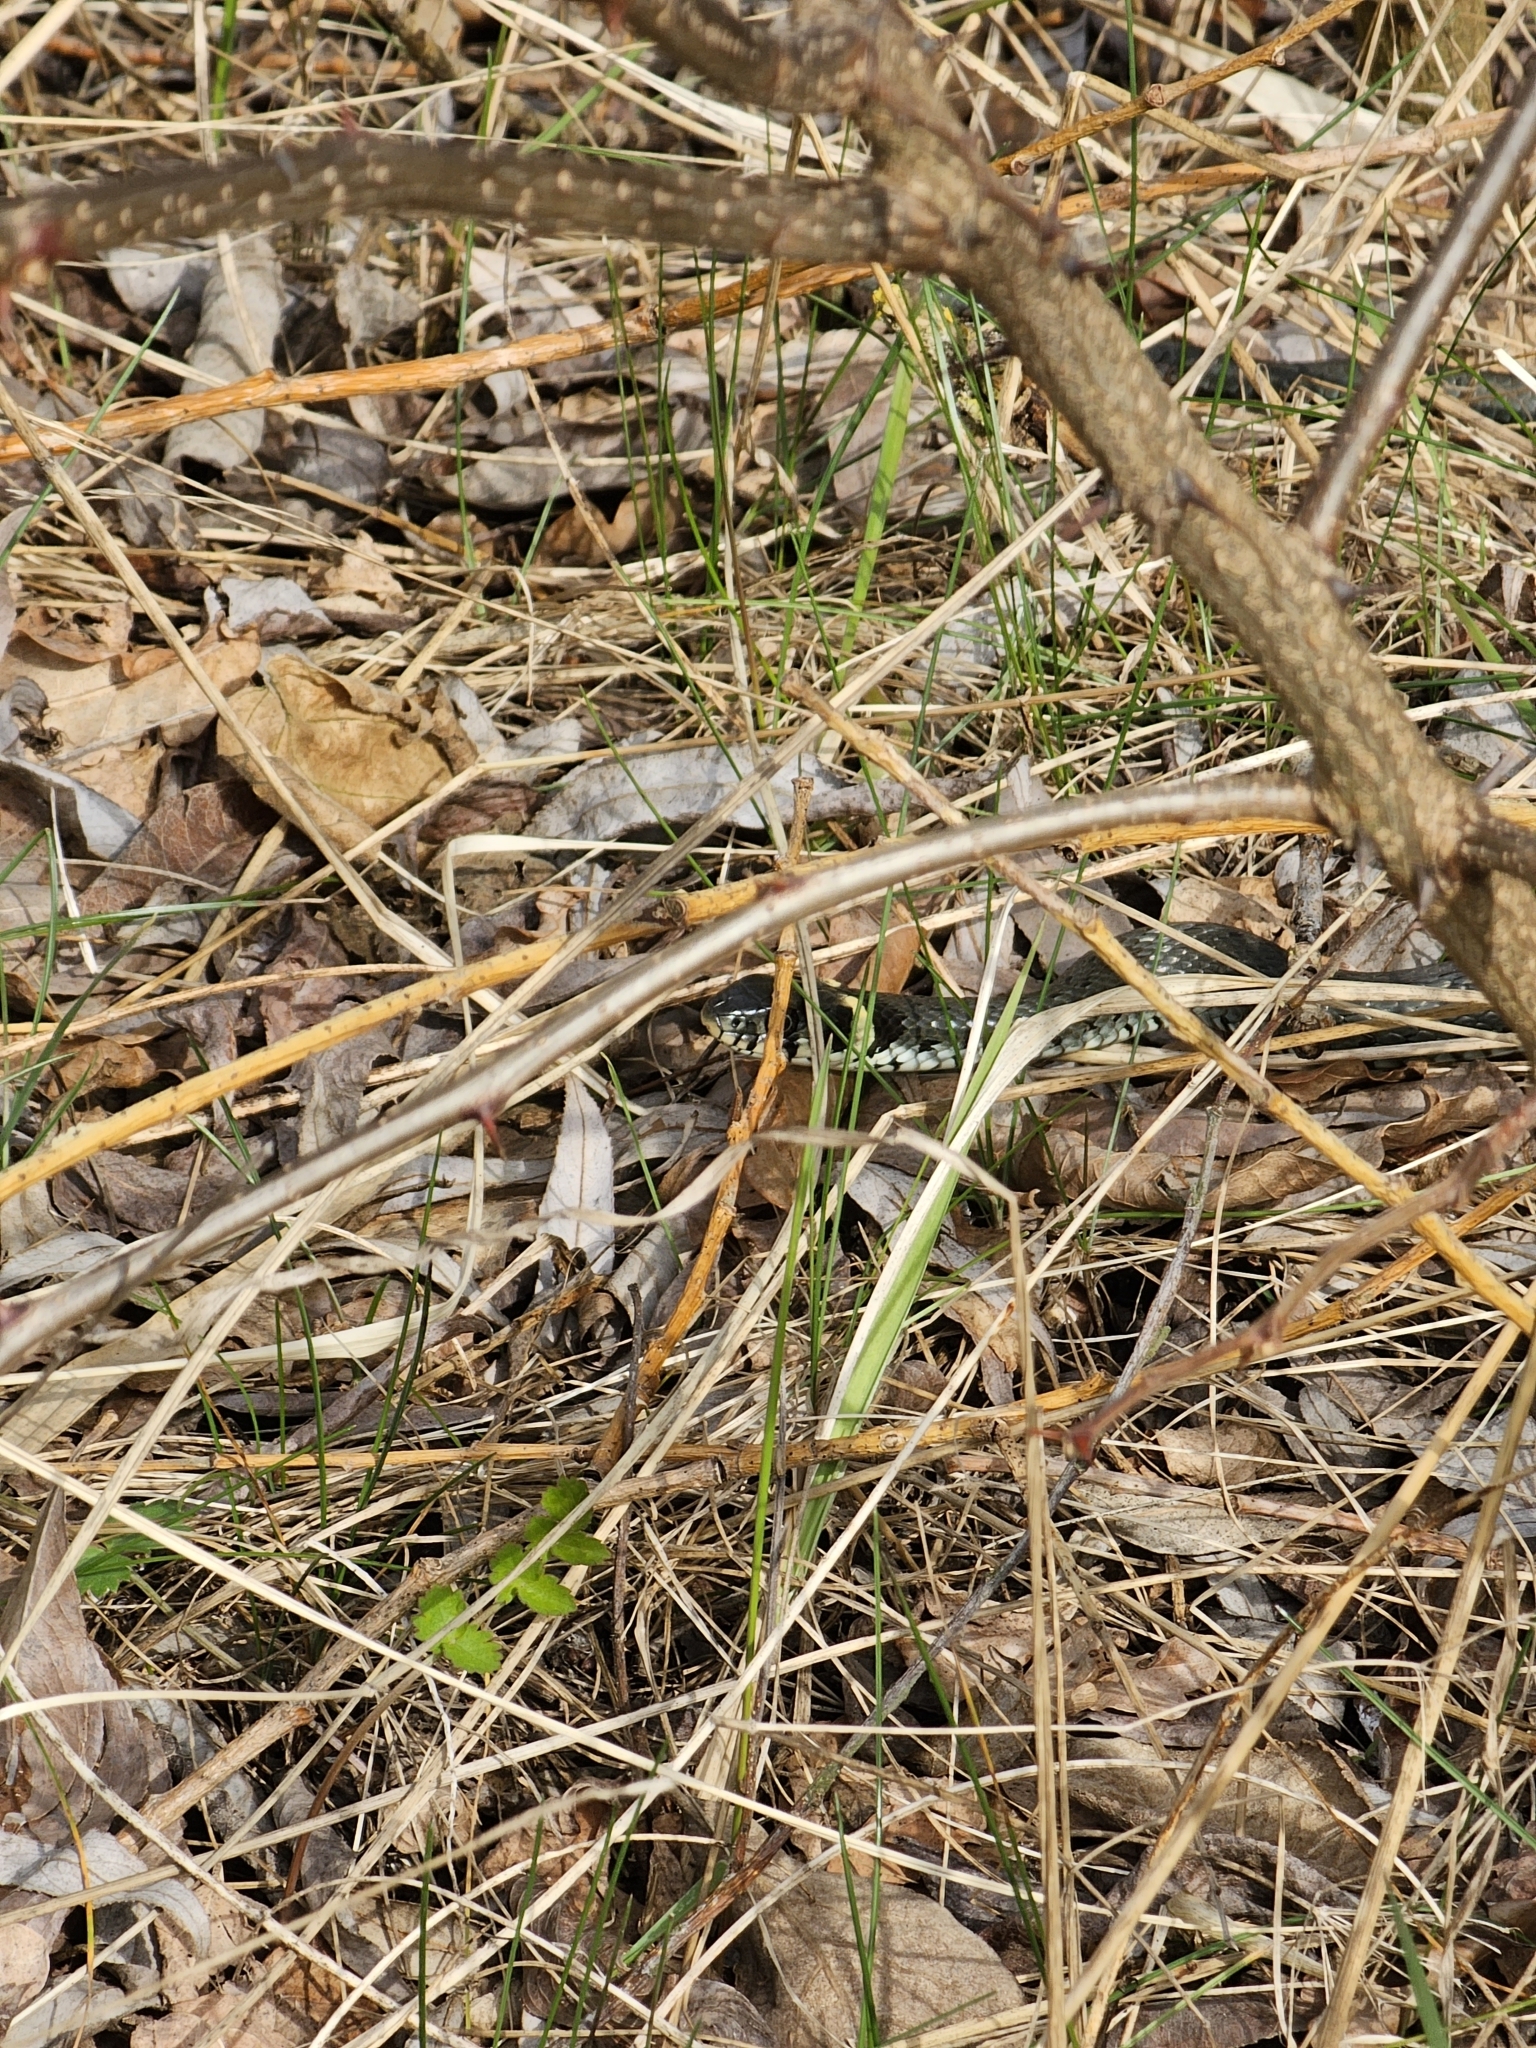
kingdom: Animalia
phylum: Chordata
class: Squamata
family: Colubridae
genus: Natrix
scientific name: Natrix natrix
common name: Grass snake
